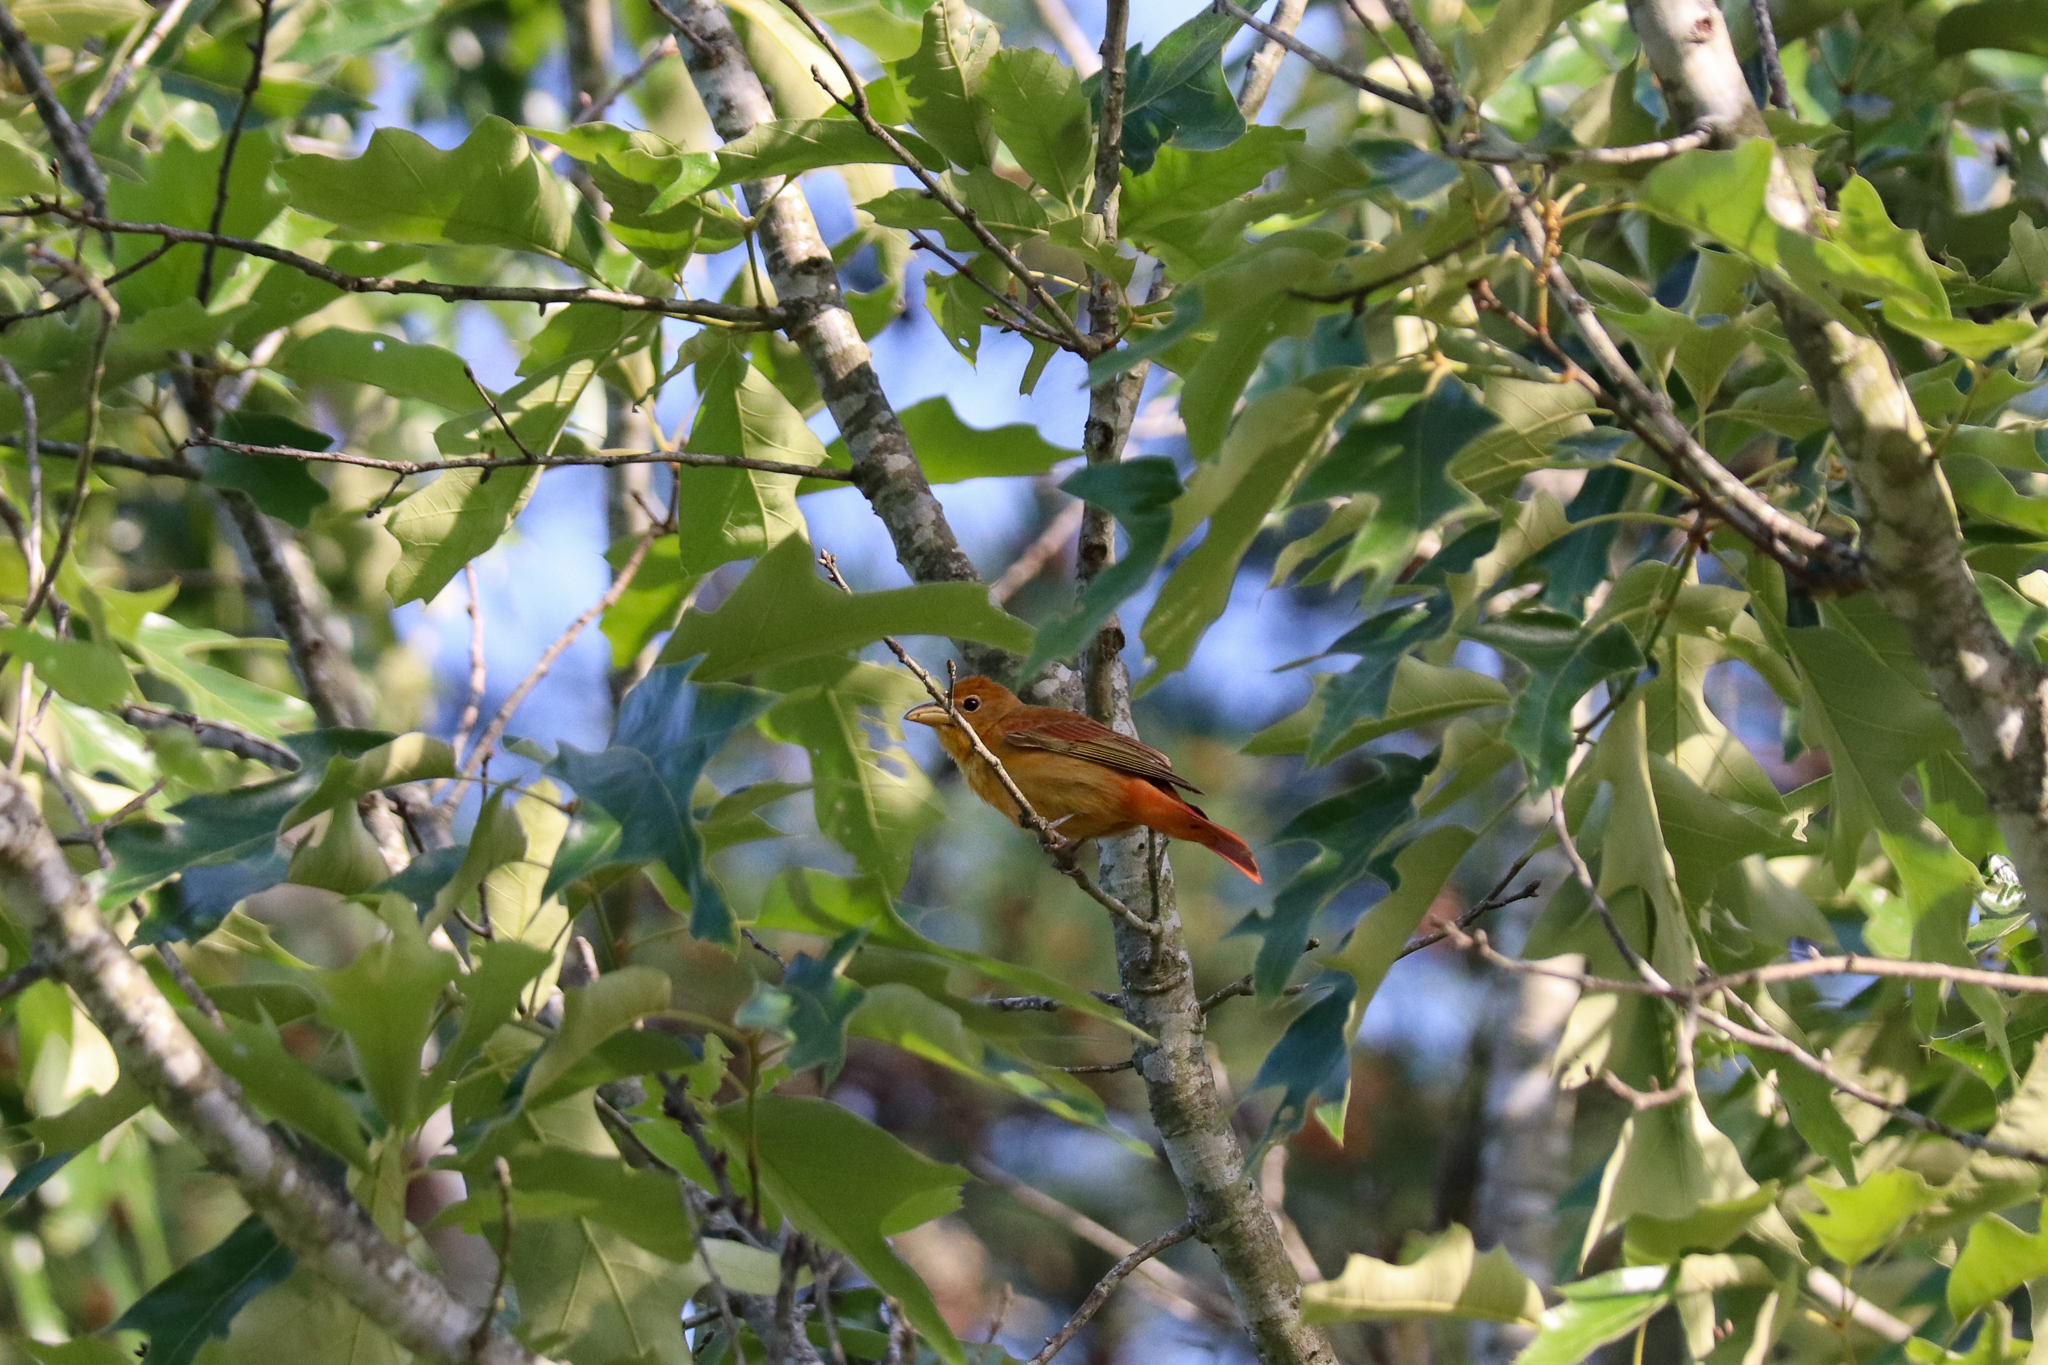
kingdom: Animalia
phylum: Chordata
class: Aves
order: Passeriformes
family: Cardinalidae
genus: Piranga
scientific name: Piranga rubra
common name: Summer tanager
